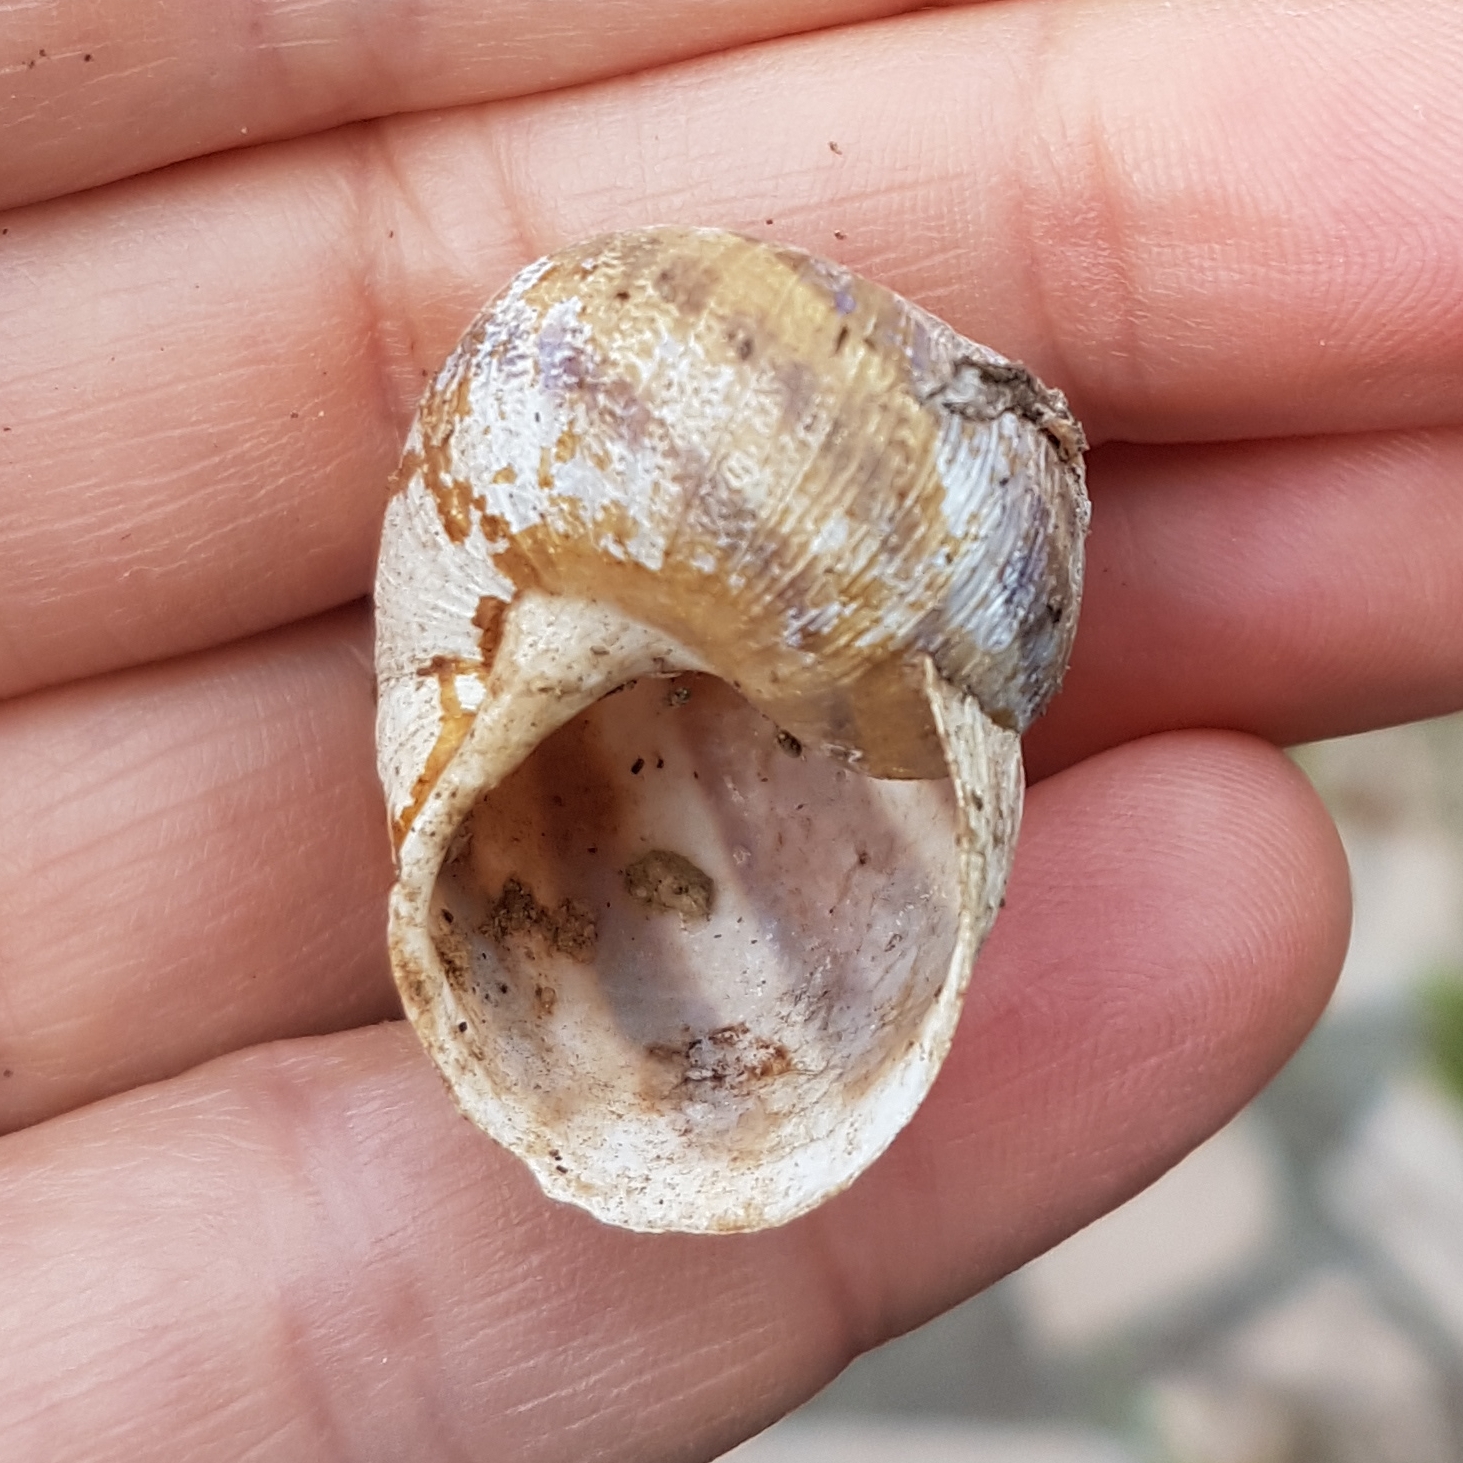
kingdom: Animalia
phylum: Mollusca
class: Gastropoda
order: Stylommatophora
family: Helicidae
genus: Cornu
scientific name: Cornu aspersum
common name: Brown garden snail
